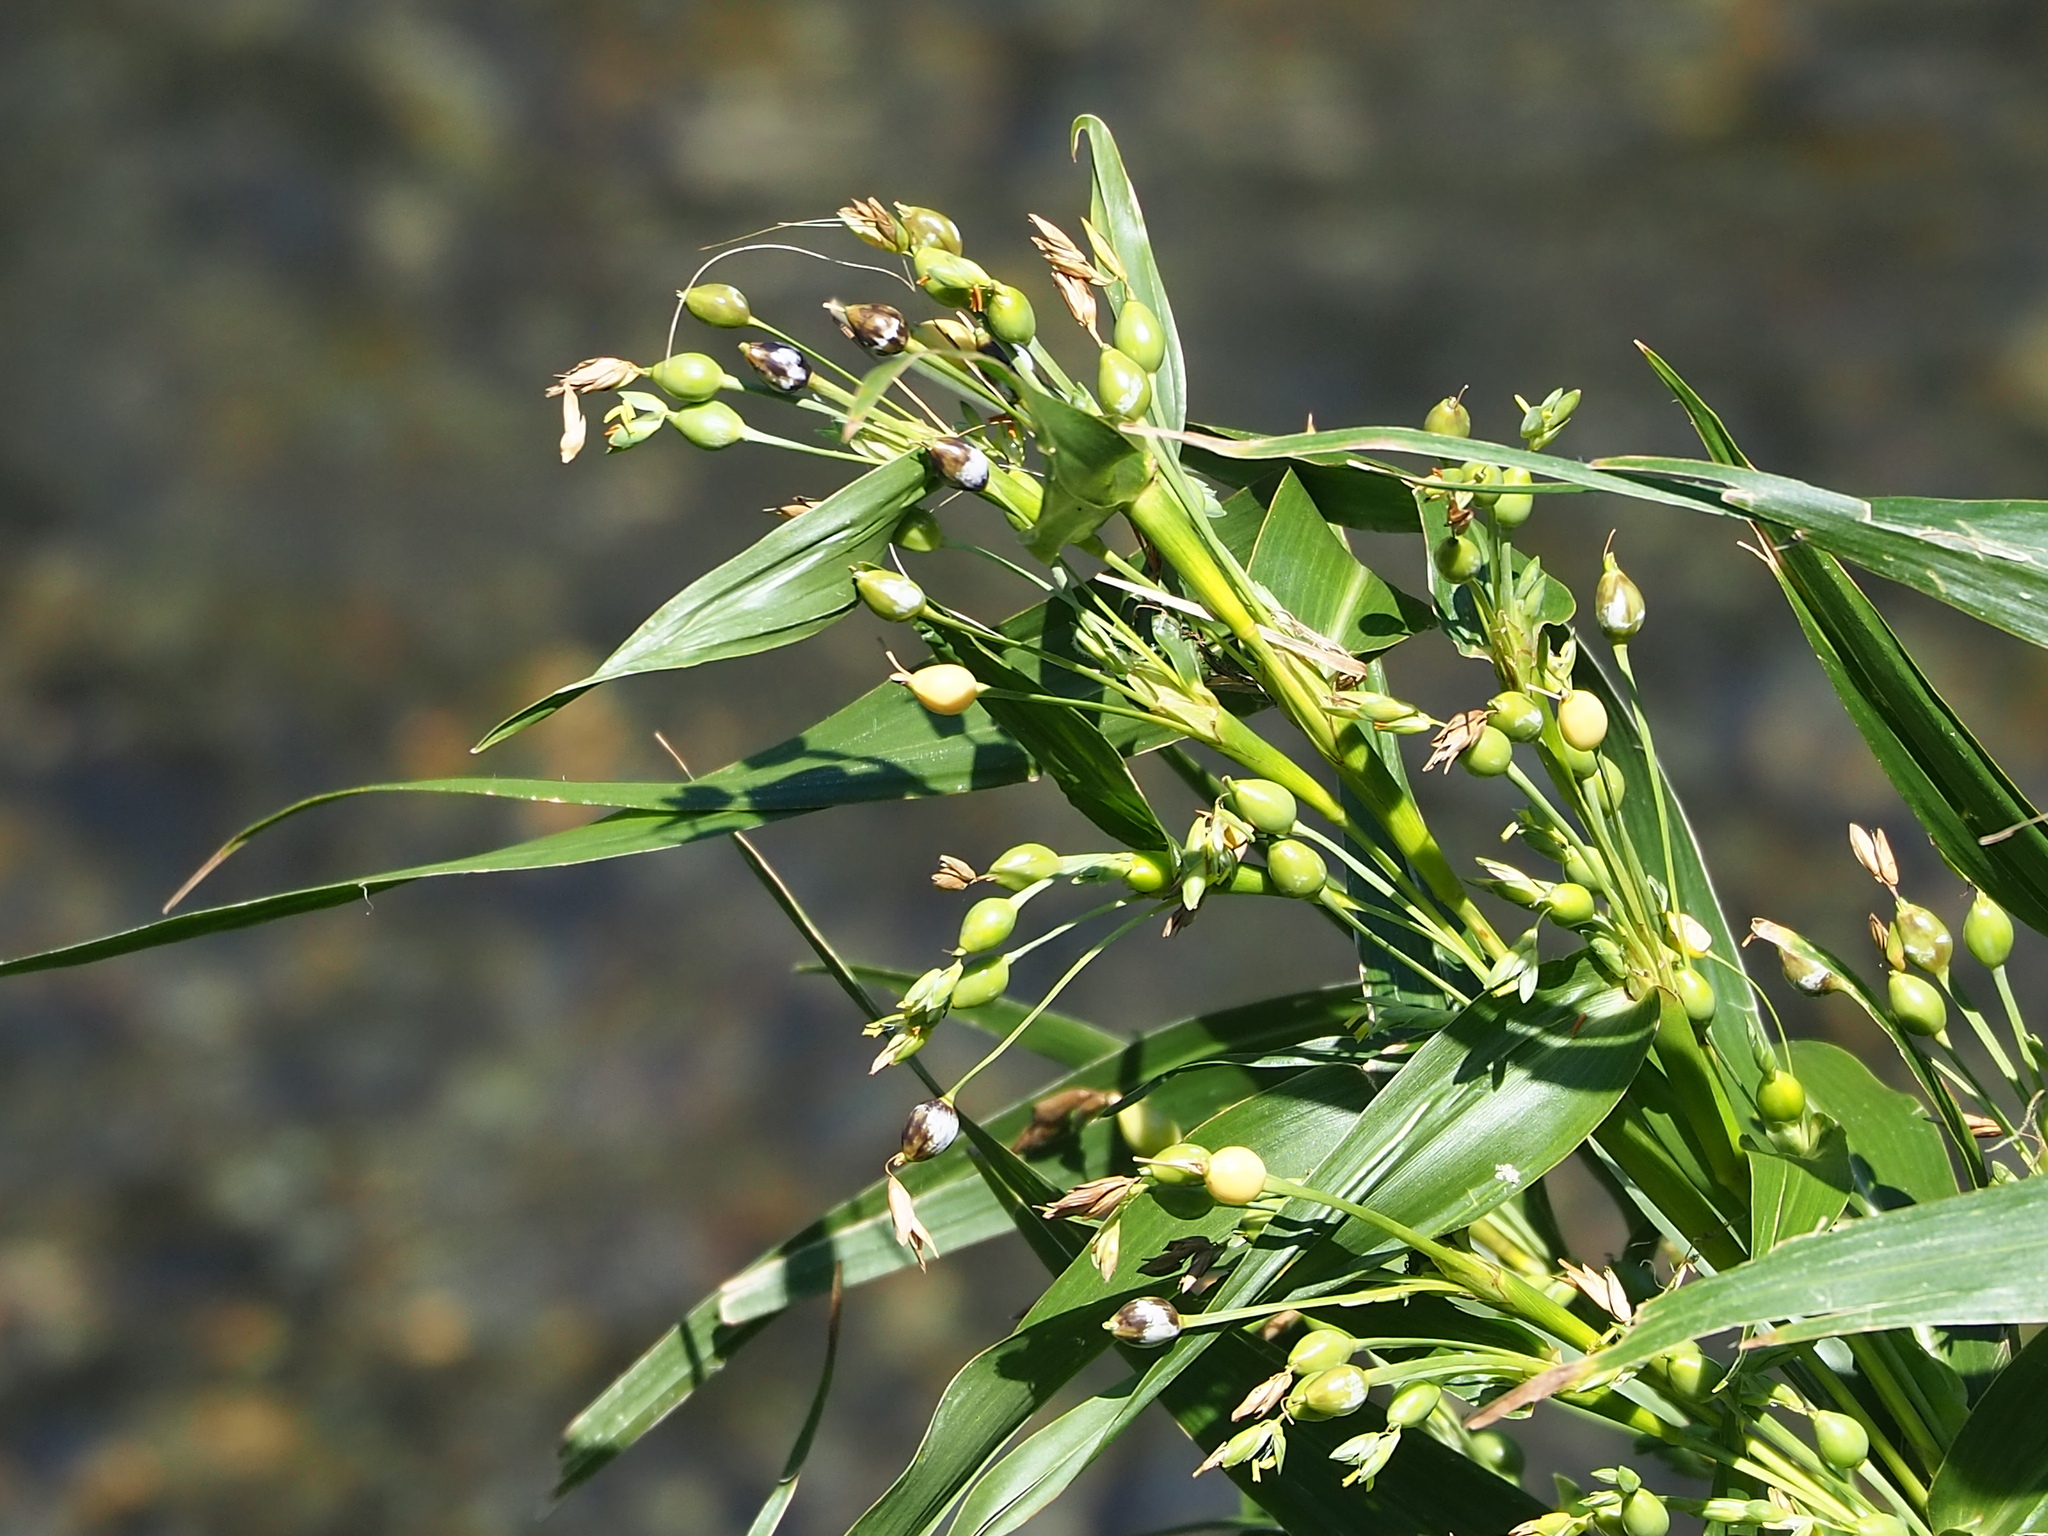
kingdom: Plantae
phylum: Tracheophyta
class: Liliopsida
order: Poales
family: Poaceae
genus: Coix
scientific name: Coix lacryma-jobi
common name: Job's tears
